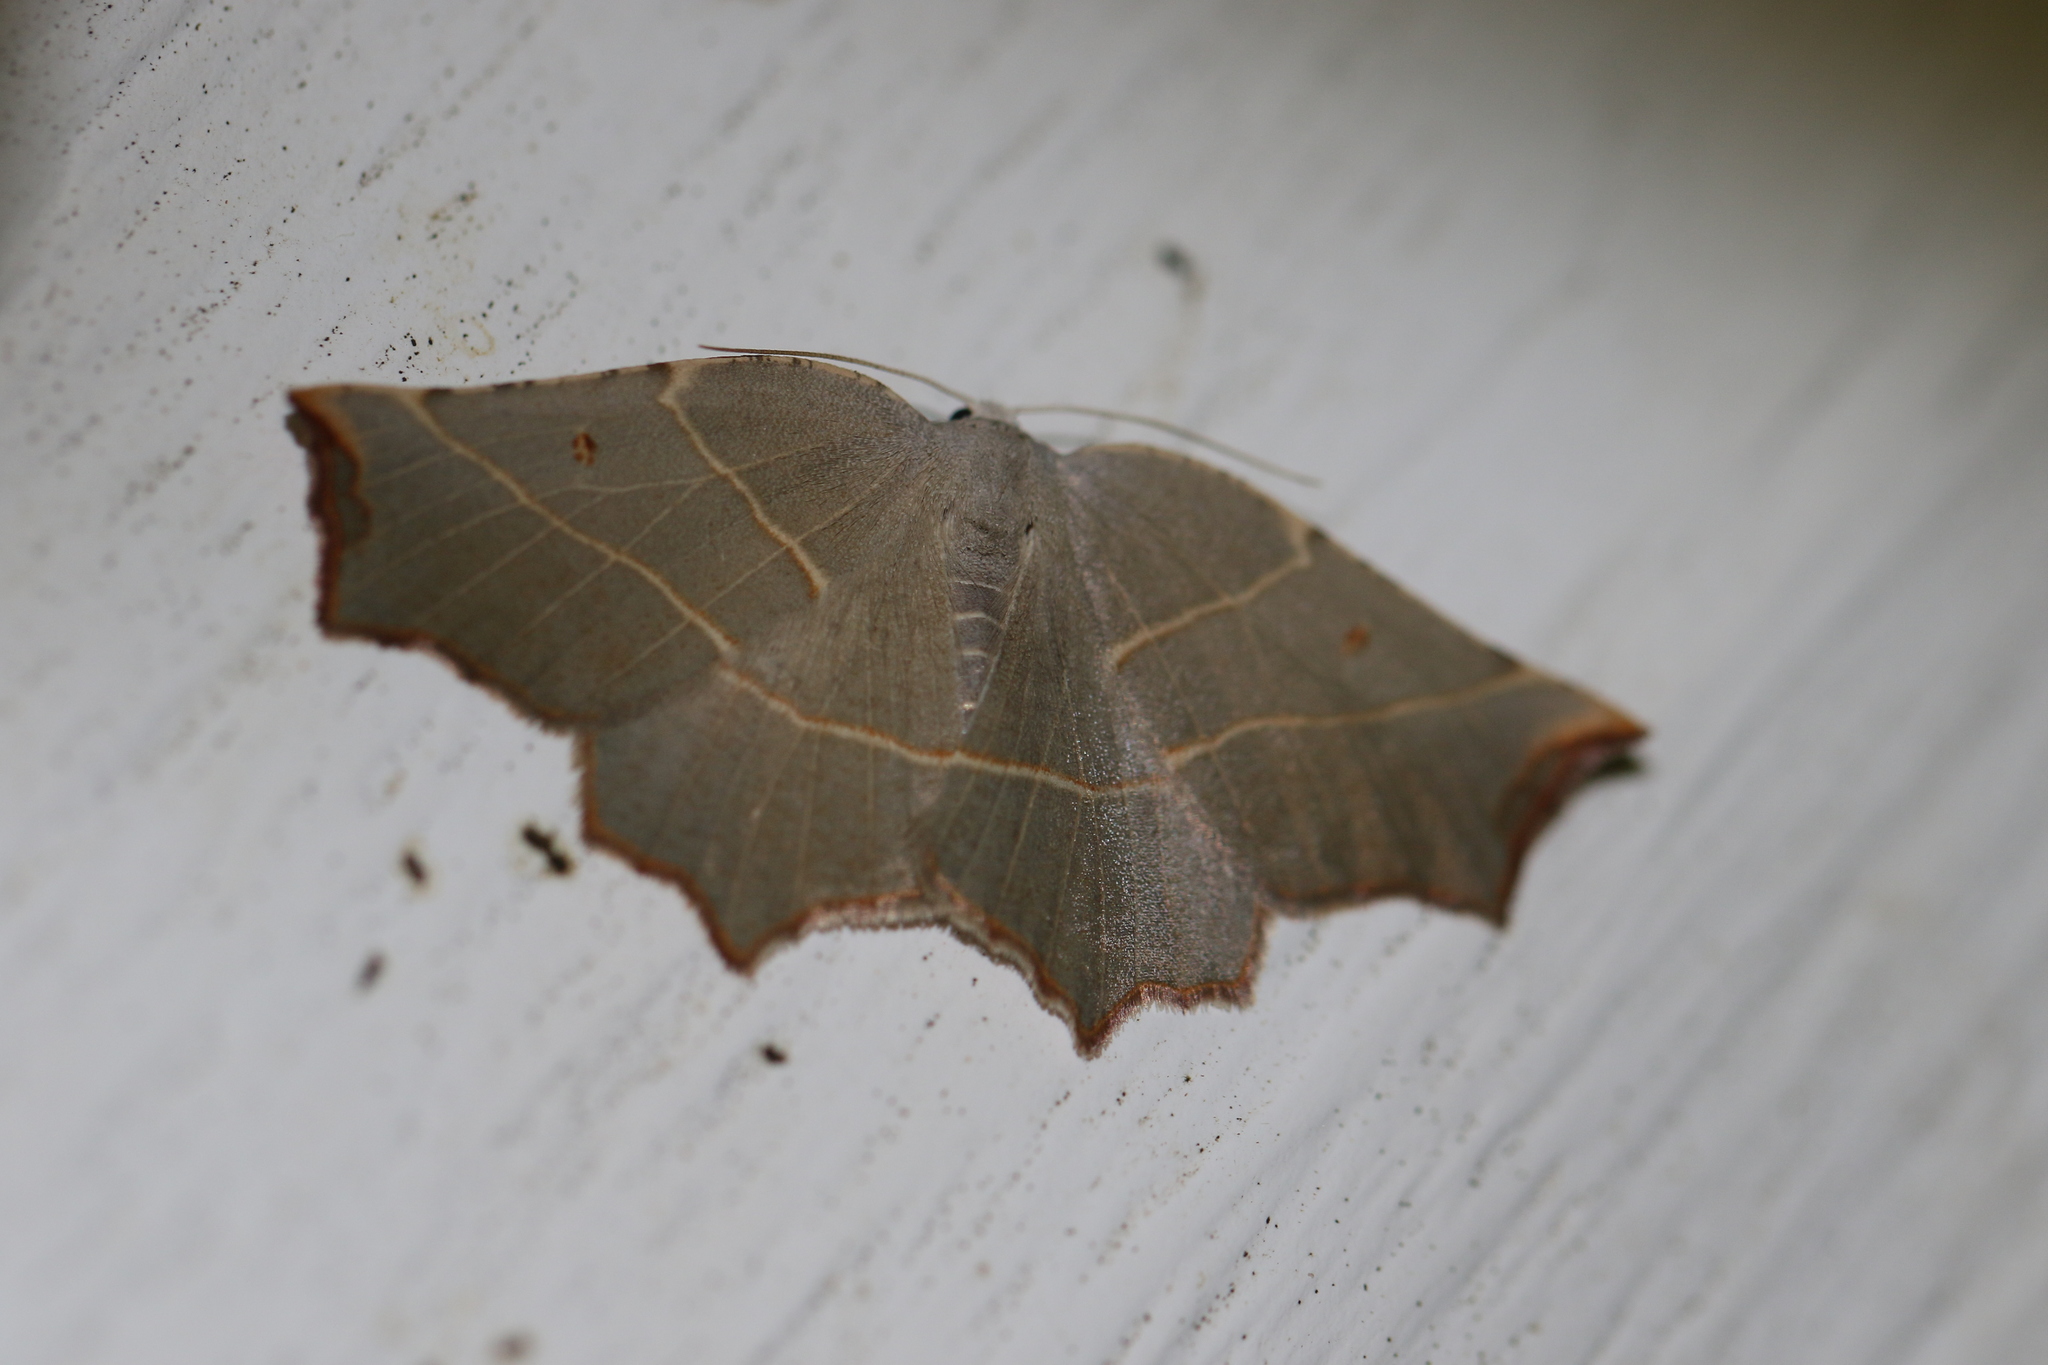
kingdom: Animalia
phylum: Arthropoda
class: Insecta
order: Lepidoptera
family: Geometridae
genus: Metanema
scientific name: Metanema inatomaria
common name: Pale metanema
